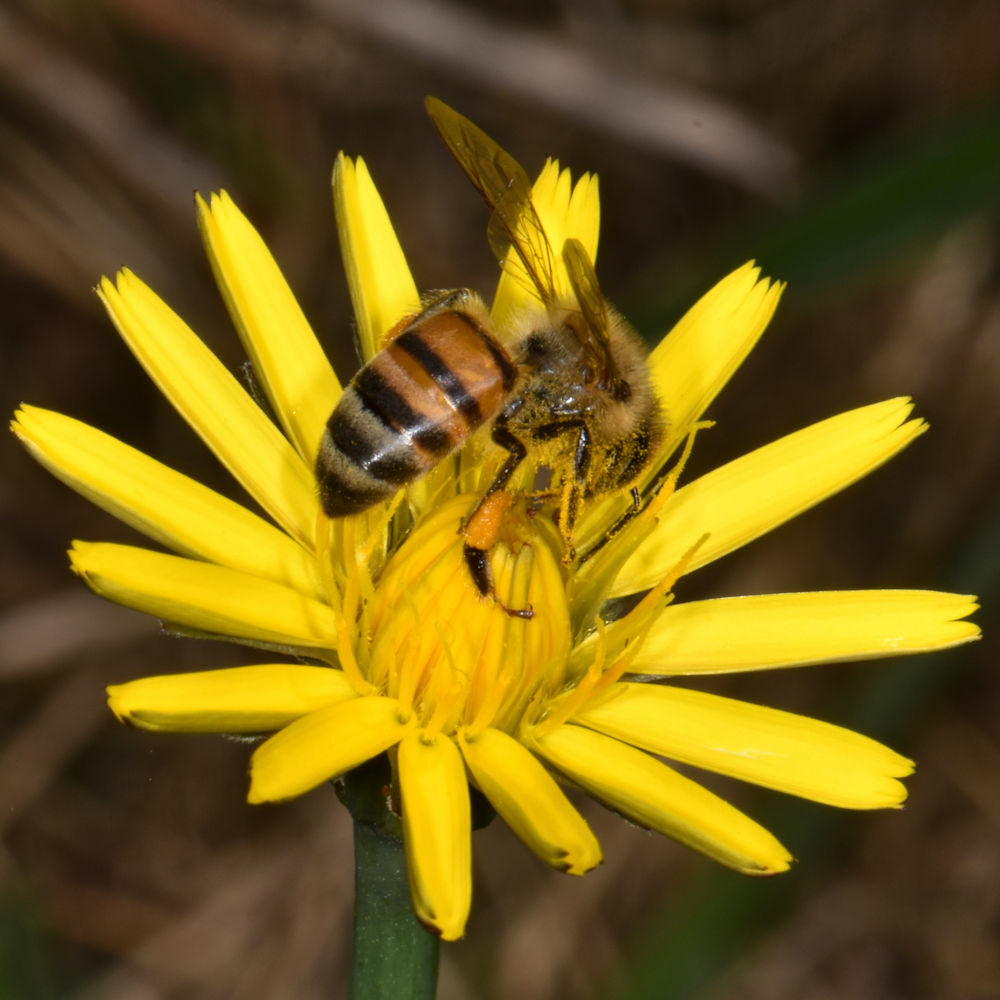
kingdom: Animalia
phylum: Arthropoda
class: Insecta
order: Hymenoptera
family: Apidae
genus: Apis
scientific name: Apis mellifera
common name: Honey bee
